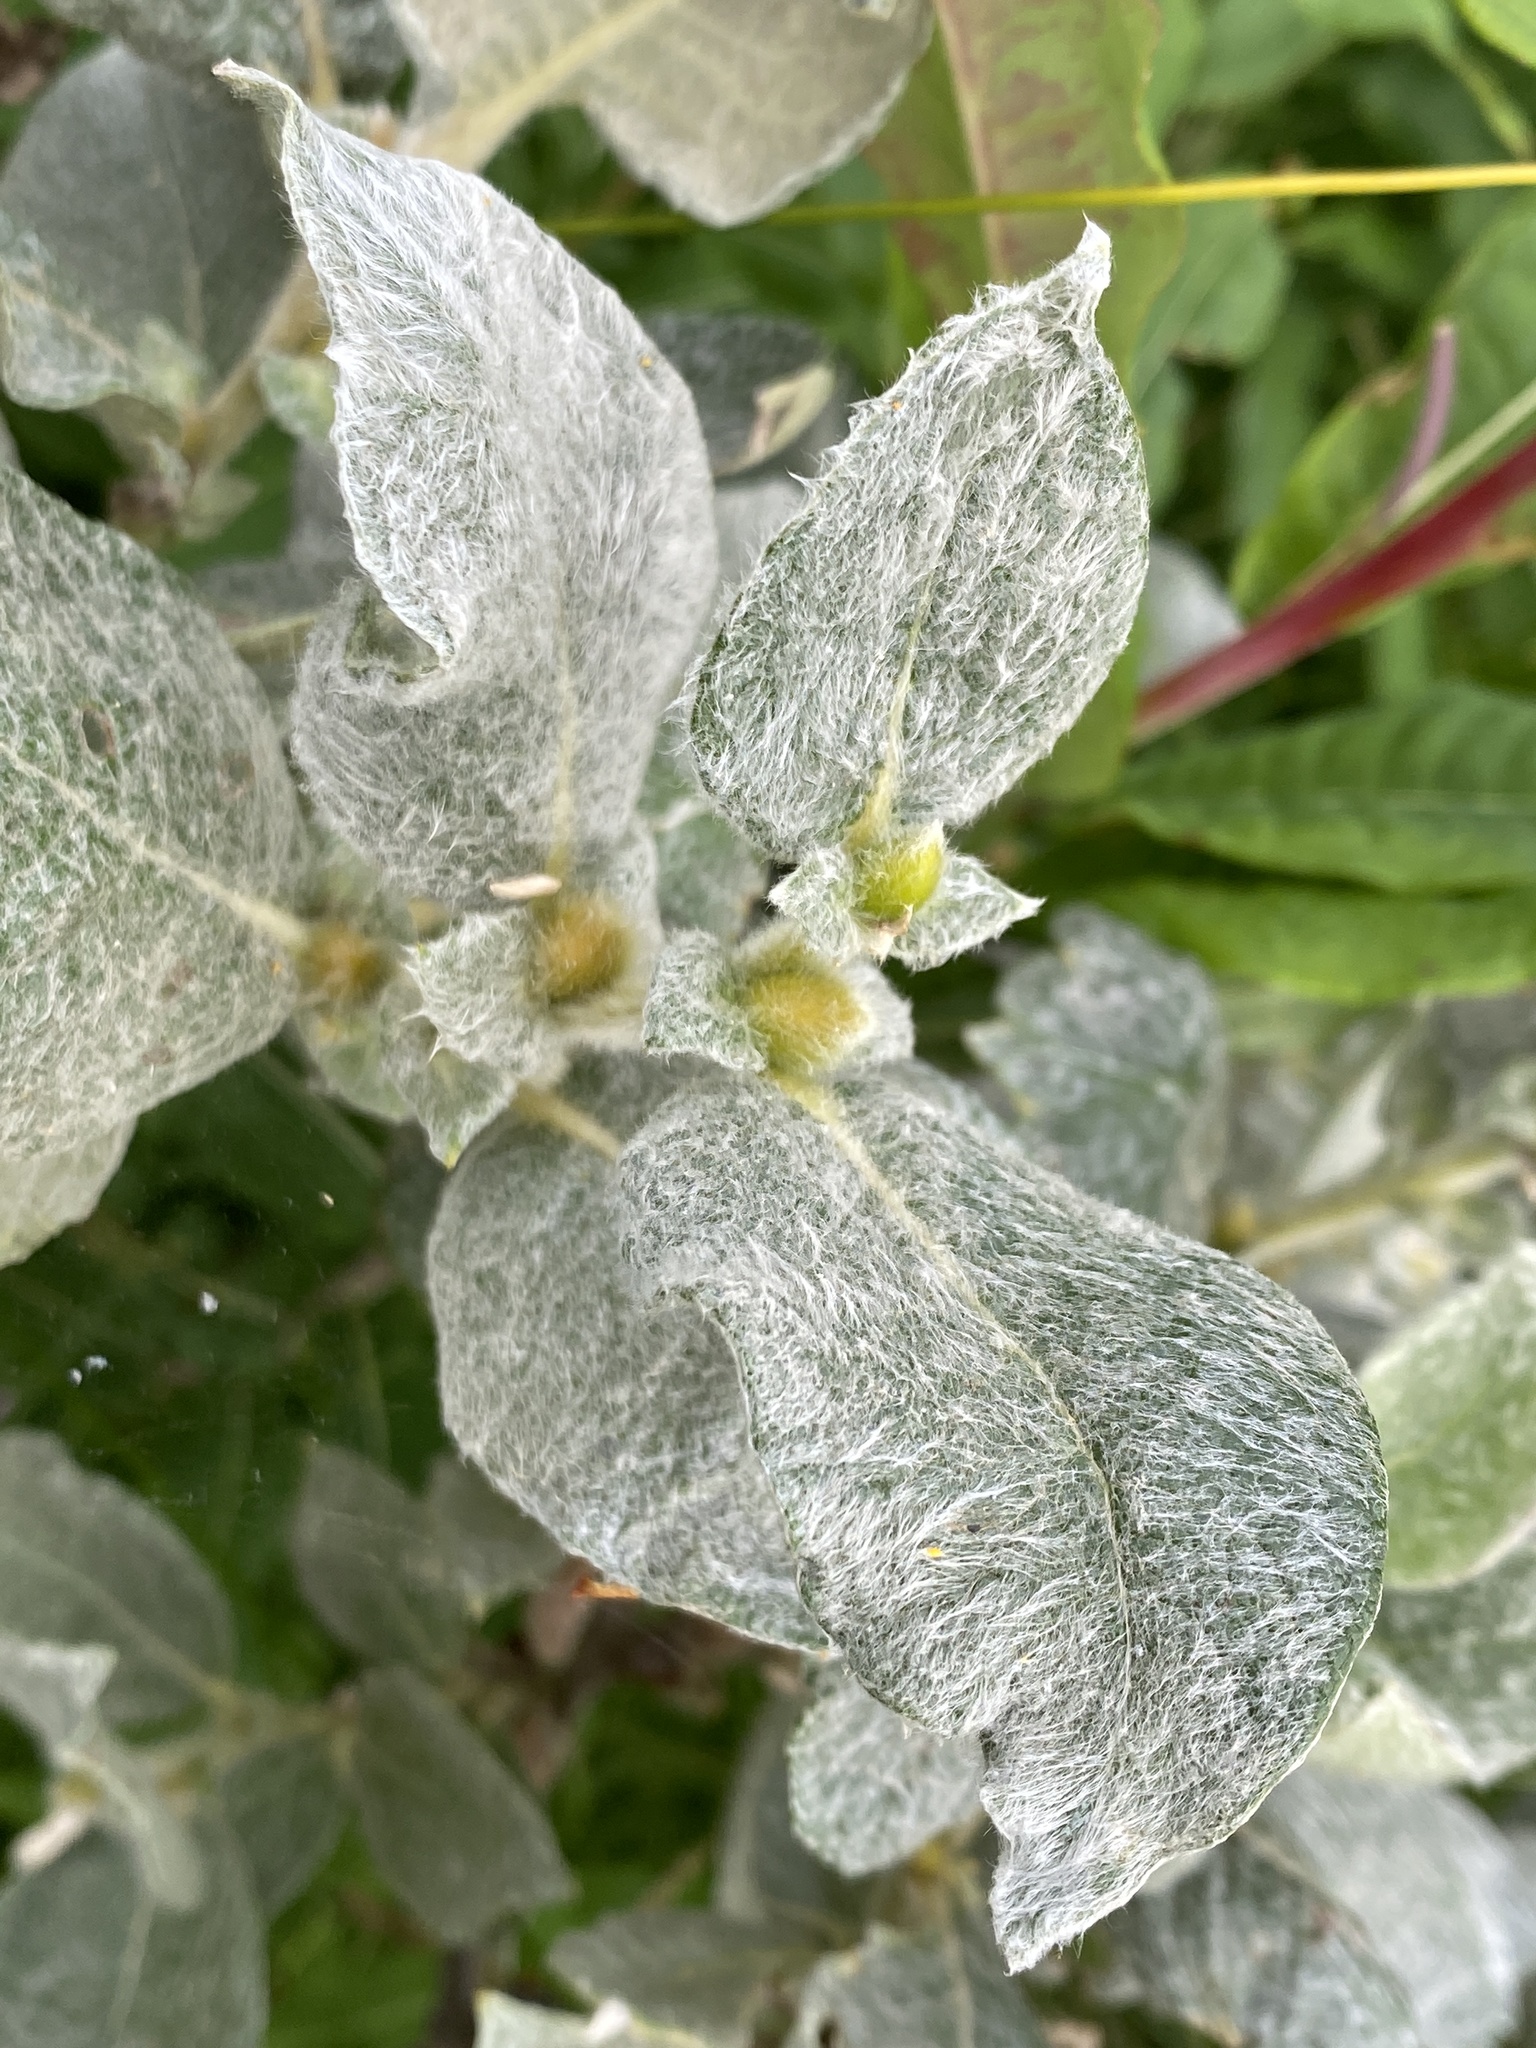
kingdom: Plantae
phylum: Tracheophyta
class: Magnoliopsida
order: Malpighiales
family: Salicaceae
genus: Salix
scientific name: Salix lanata
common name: Woolly willow
